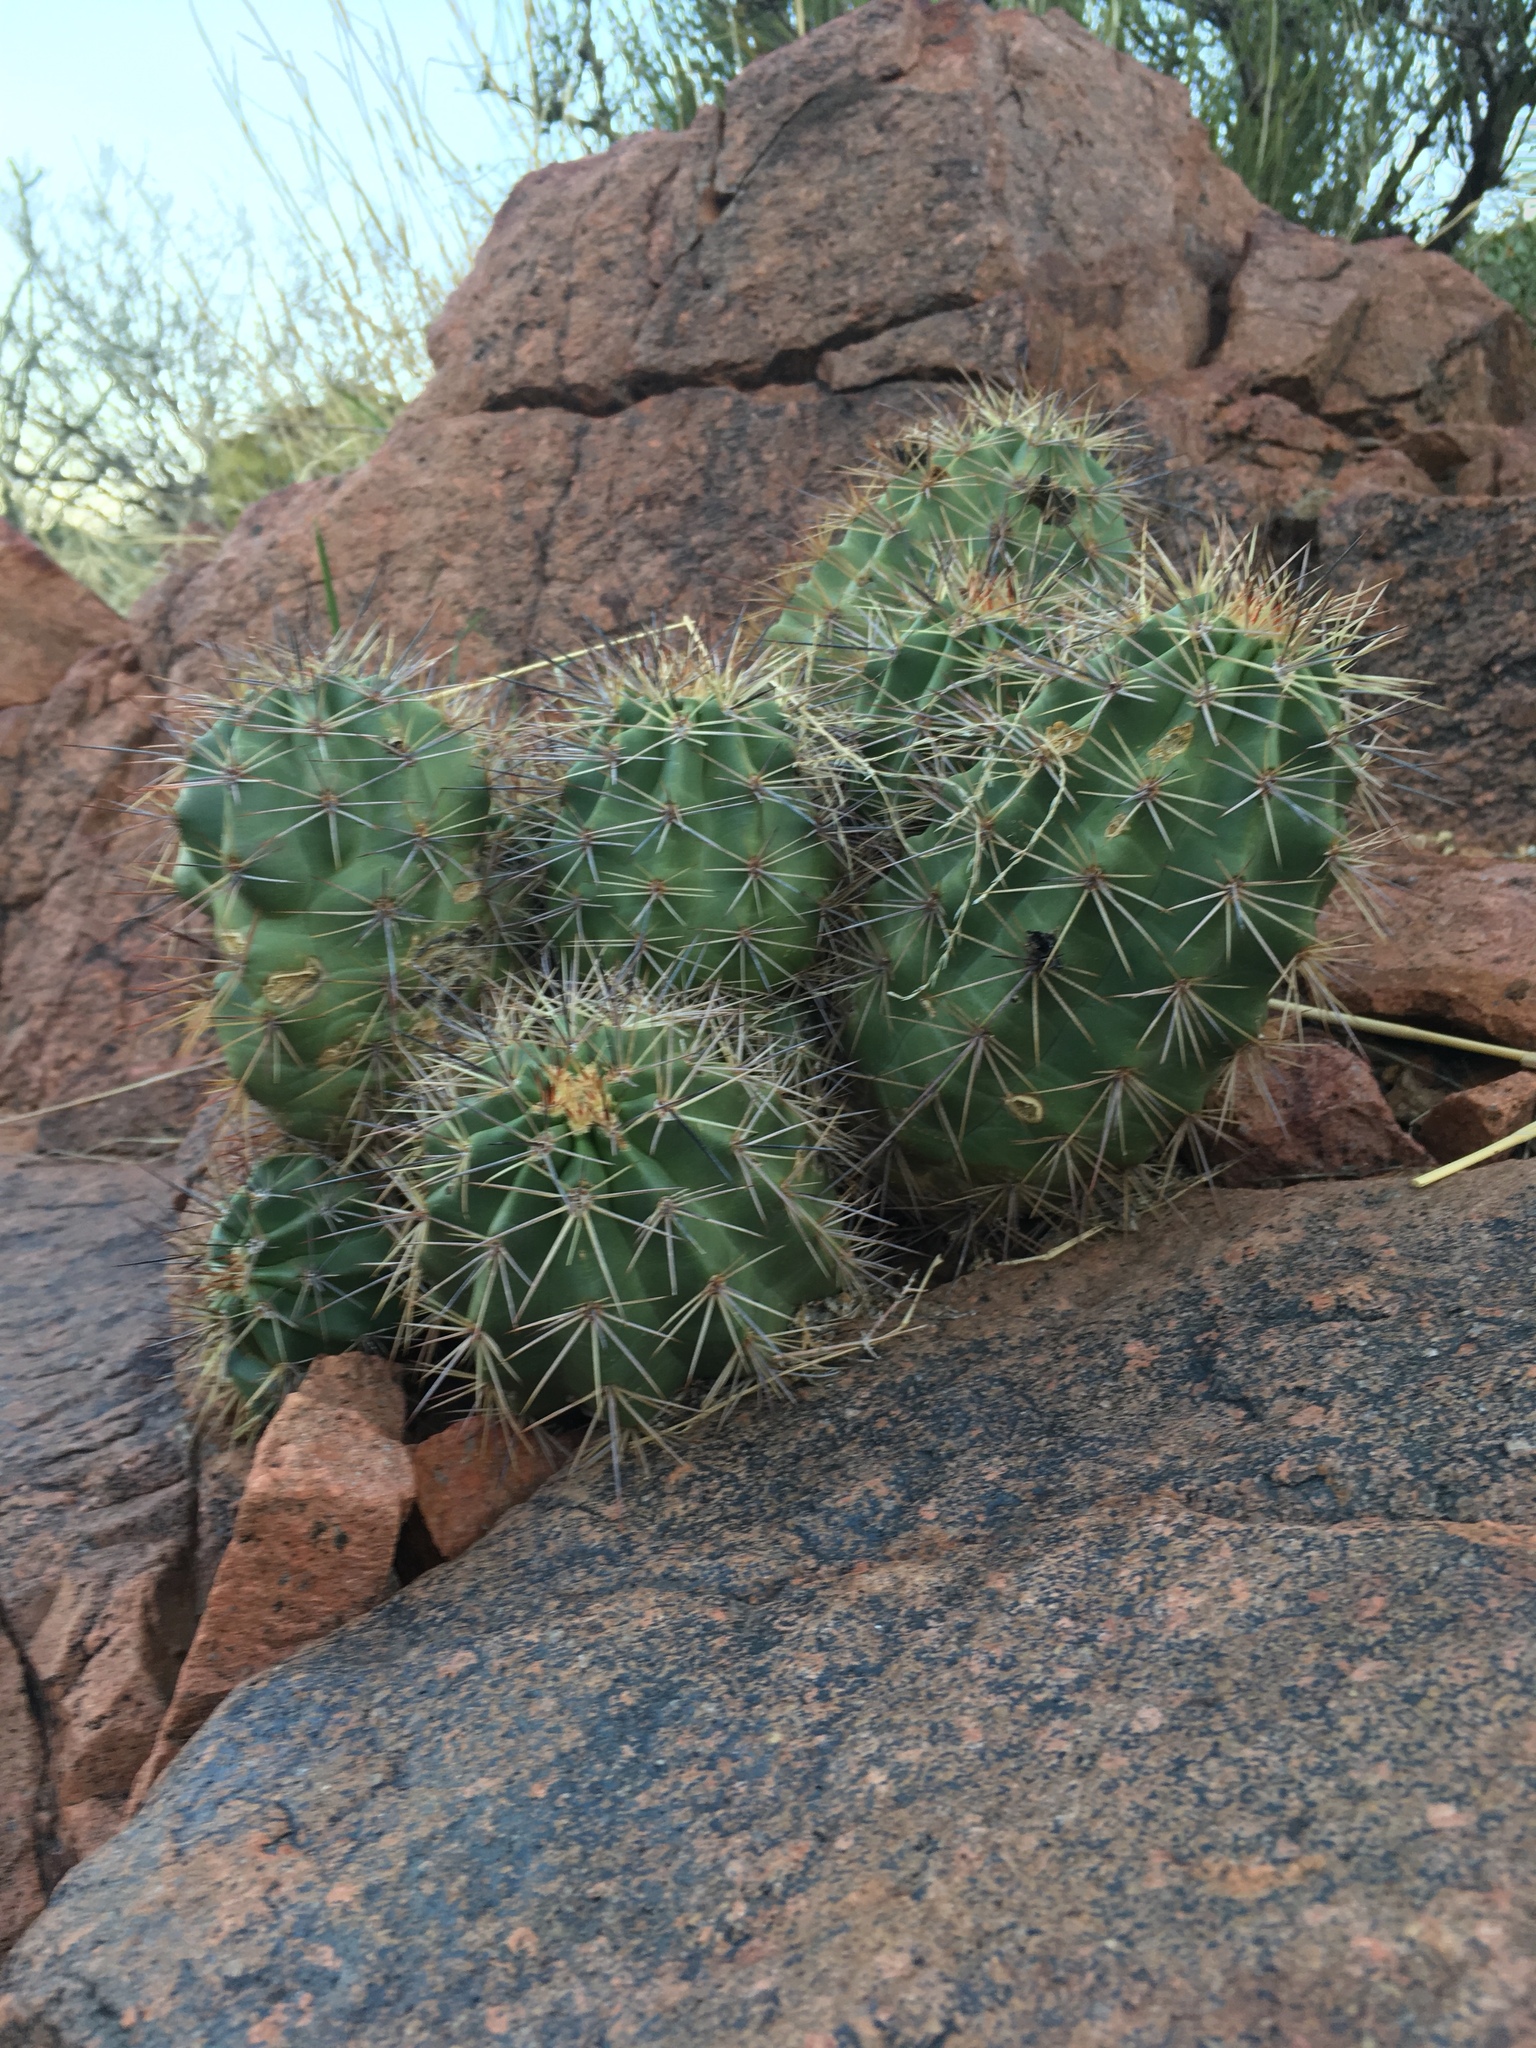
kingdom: Plantae
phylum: Tracheophyta
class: Magnoliopsida
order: Caryophyllales
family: Cactaceae
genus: Echinocereus
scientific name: Echinocereus coccineus
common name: Scarlet hedgehog cactus
